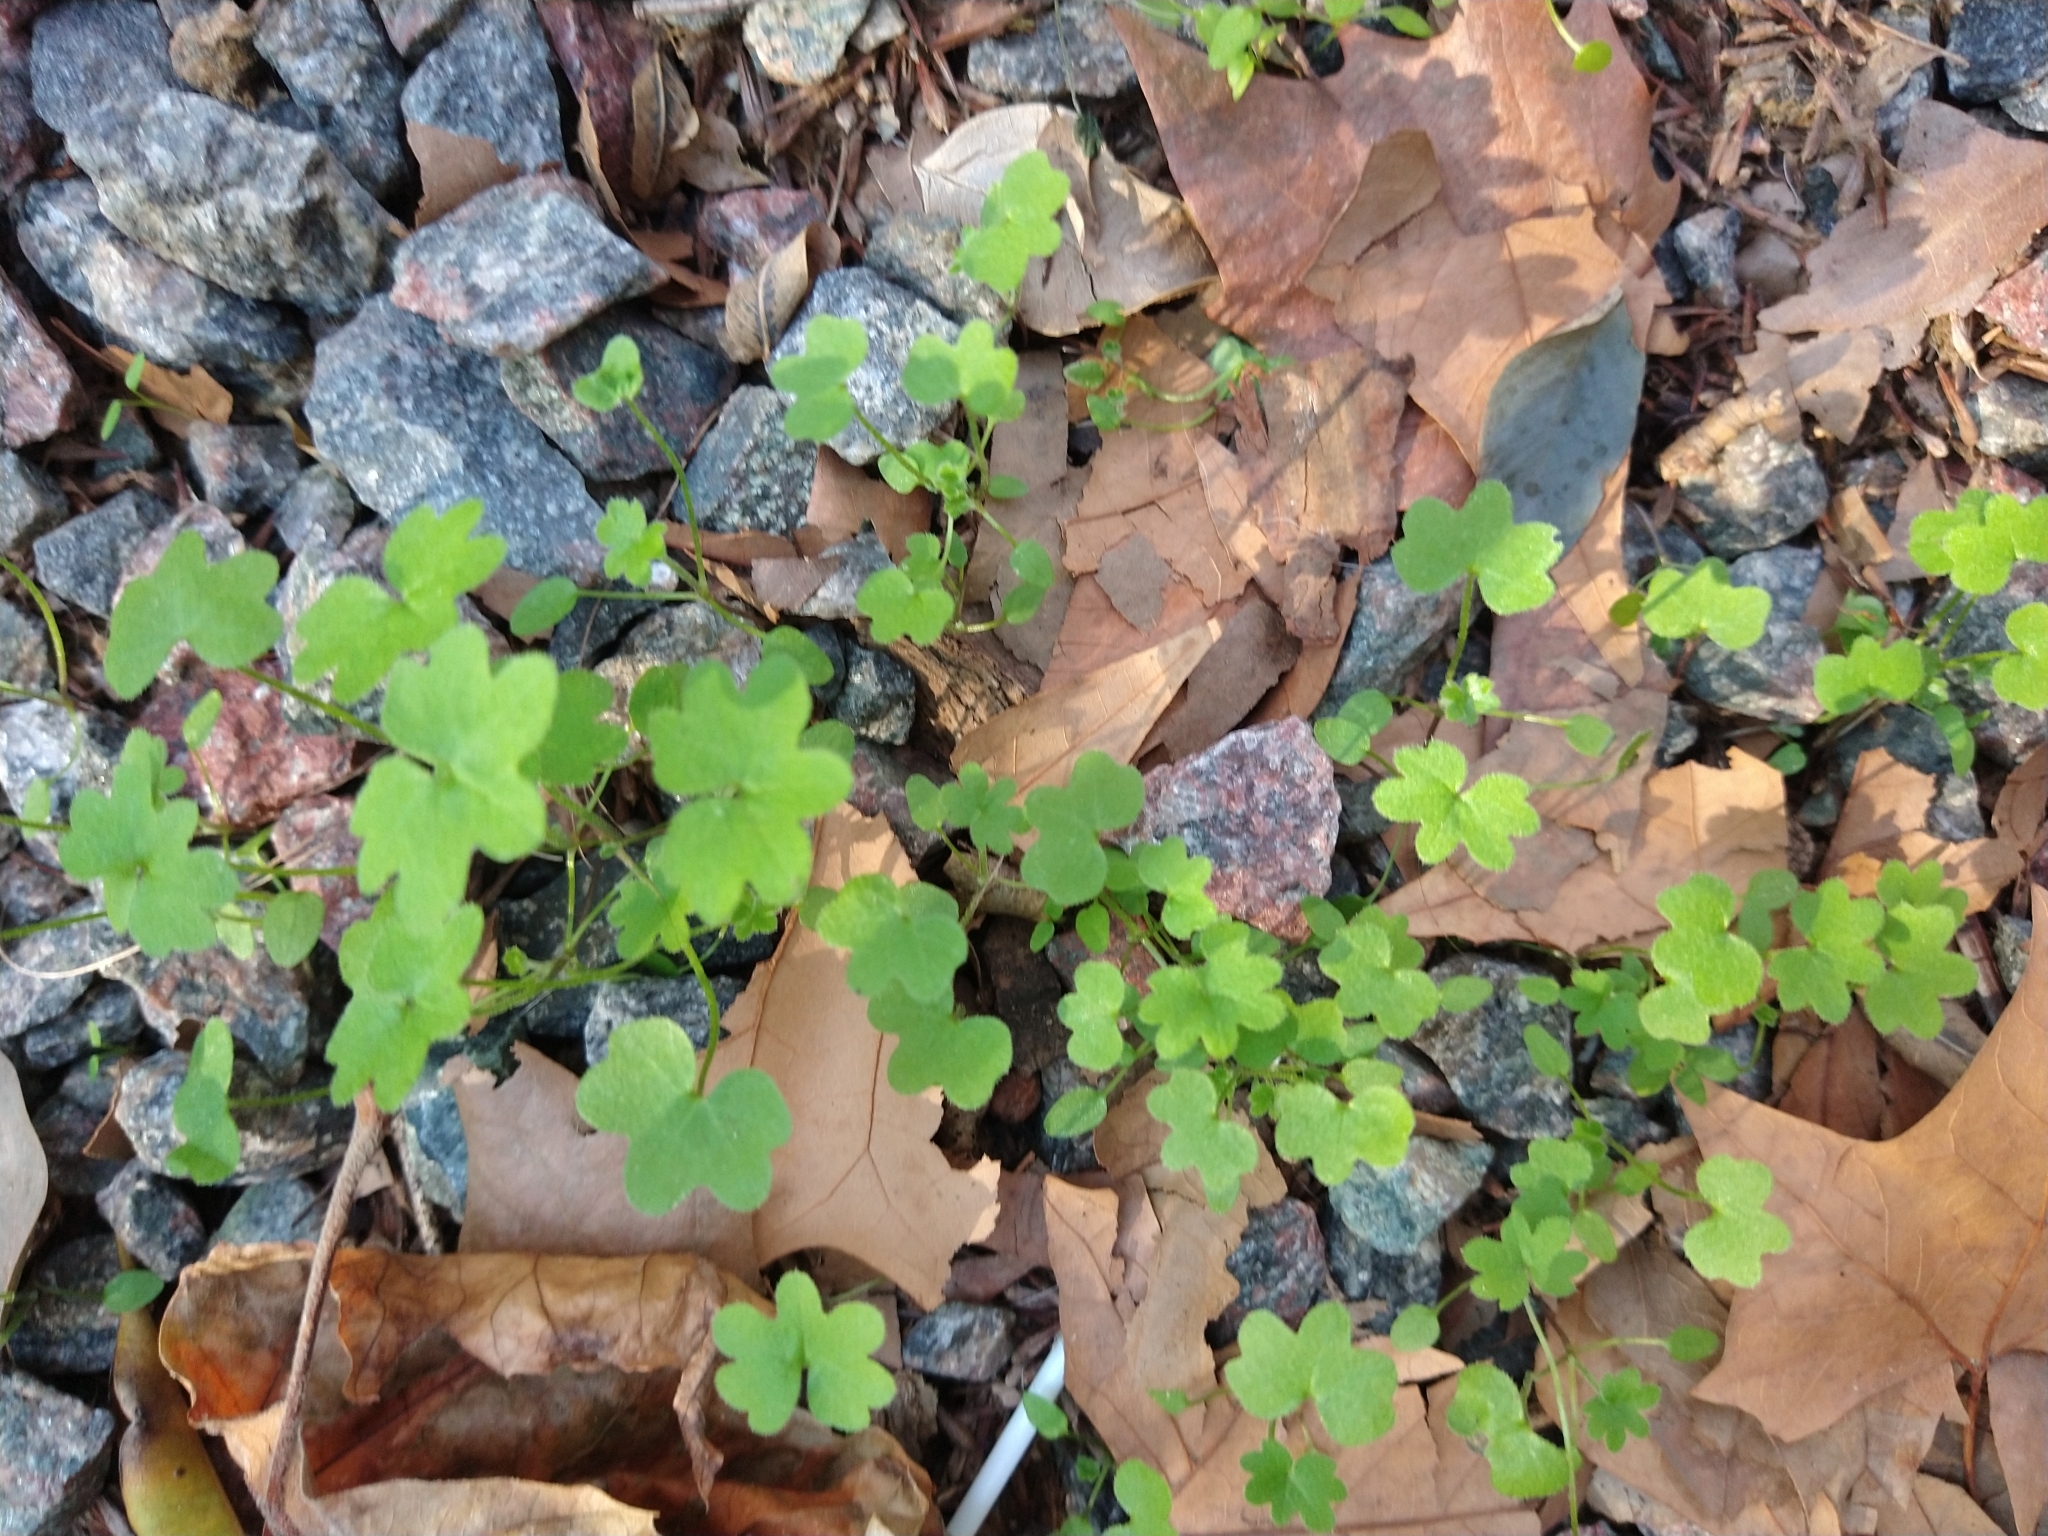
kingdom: Plantae
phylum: Tracheophyta
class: Magnoliopsida
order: Apiales
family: Apiaceae
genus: Bowlesia
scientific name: Bowlesia incana
